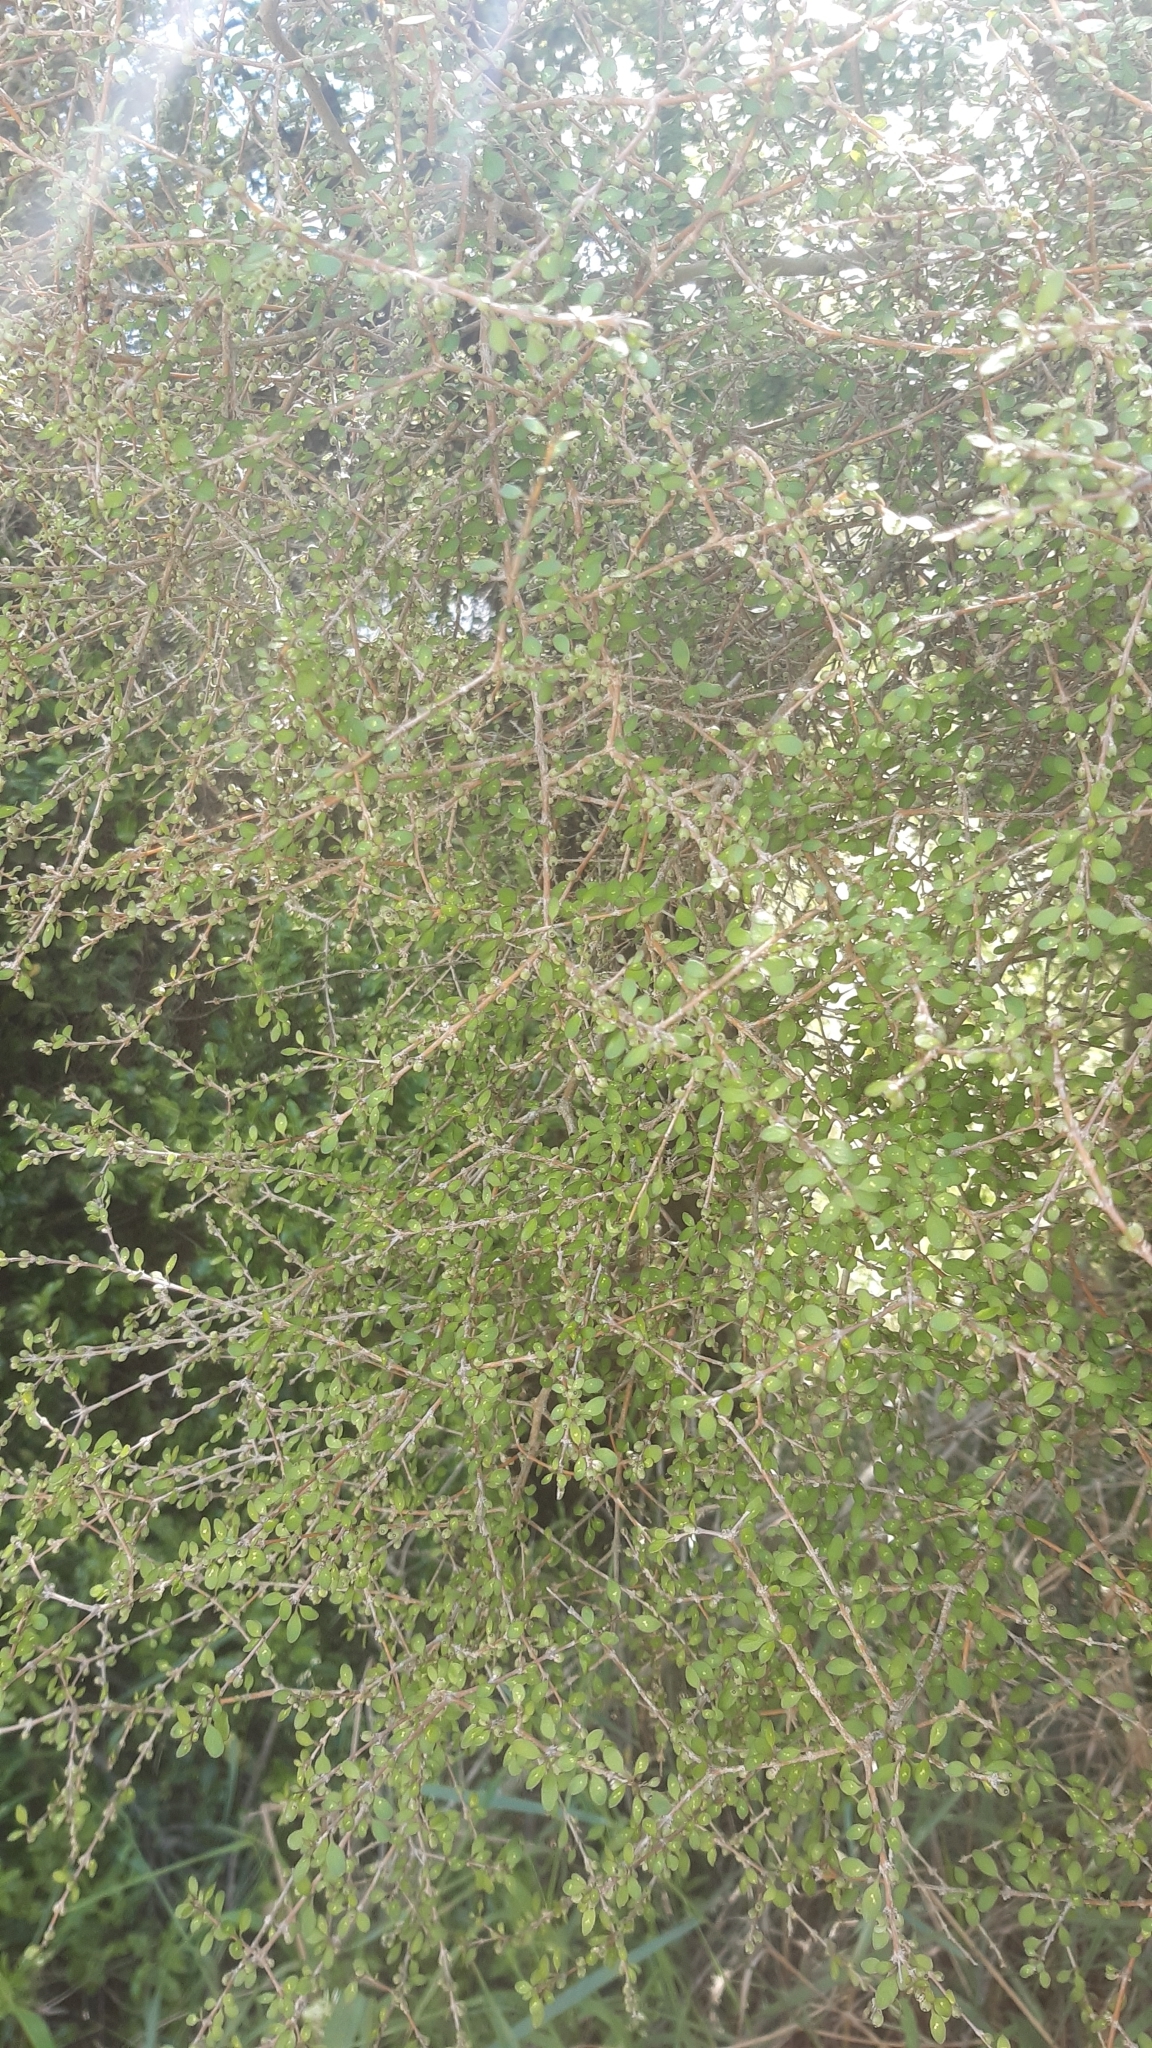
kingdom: Plantae
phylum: Tracheophyta
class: Magnoliopsida
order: Gentianales
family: Rubiaceae
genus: Coprosma
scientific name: Coprosma virescens
